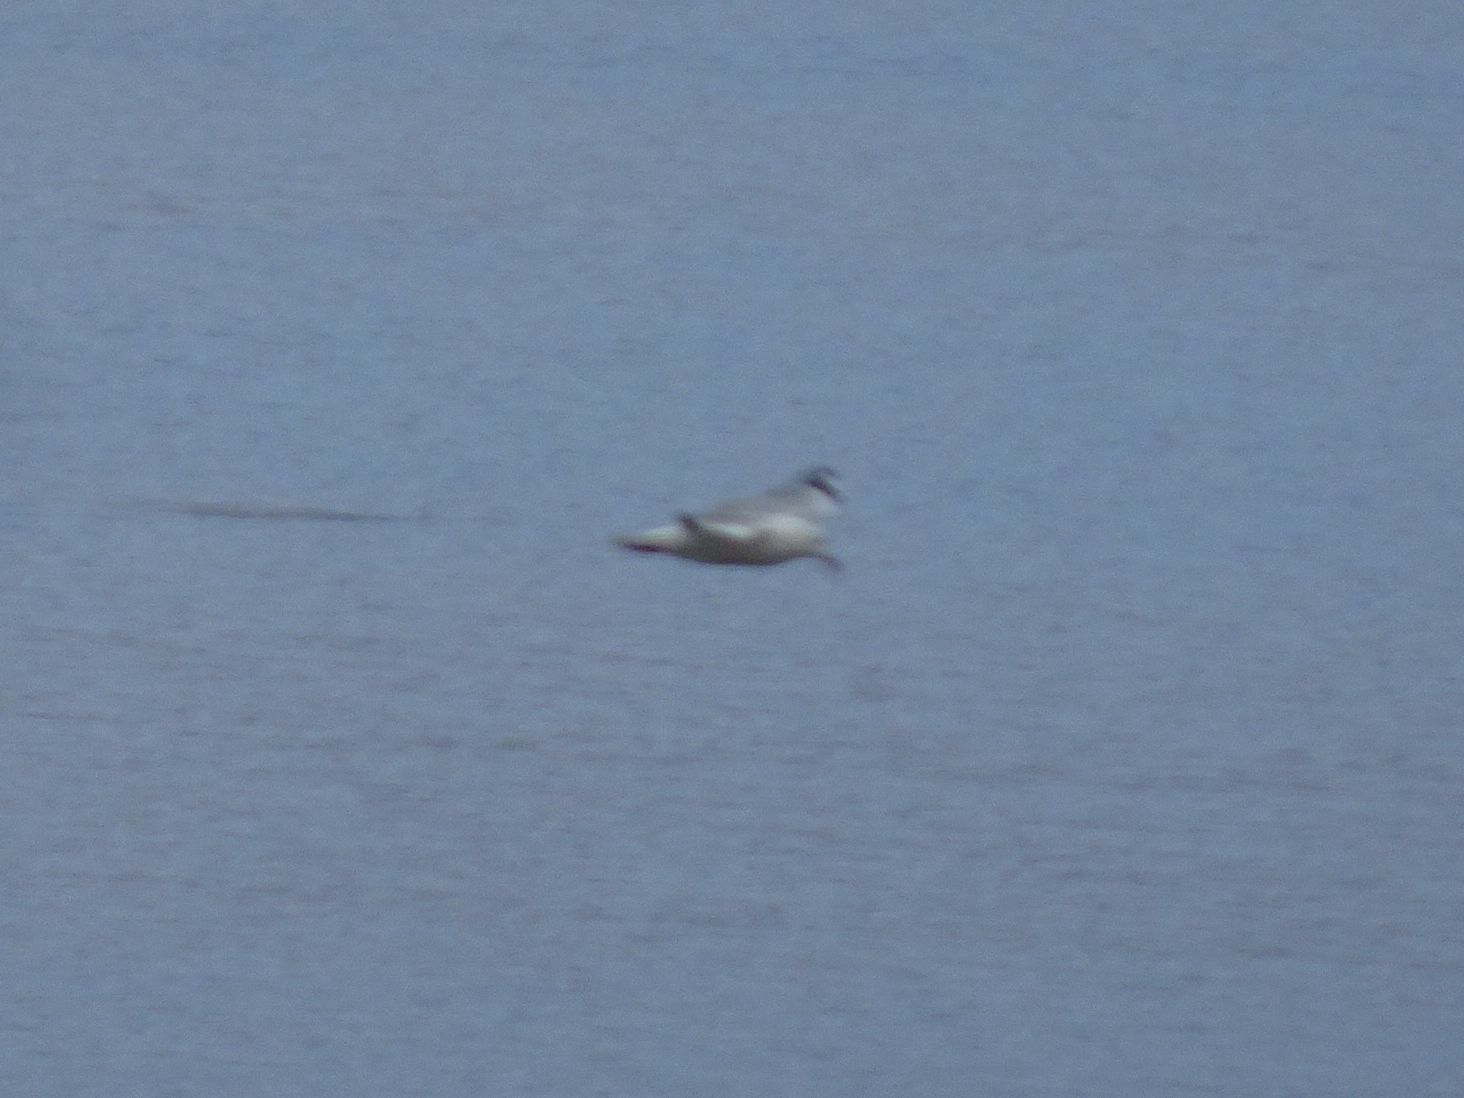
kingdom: Animalia
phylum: Chordata
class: Aves
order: Charadriiformes
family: Laridae
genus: Chroicocephalus
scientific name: Chroicocephalus hartlaubii
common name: Hartlaub's gull
